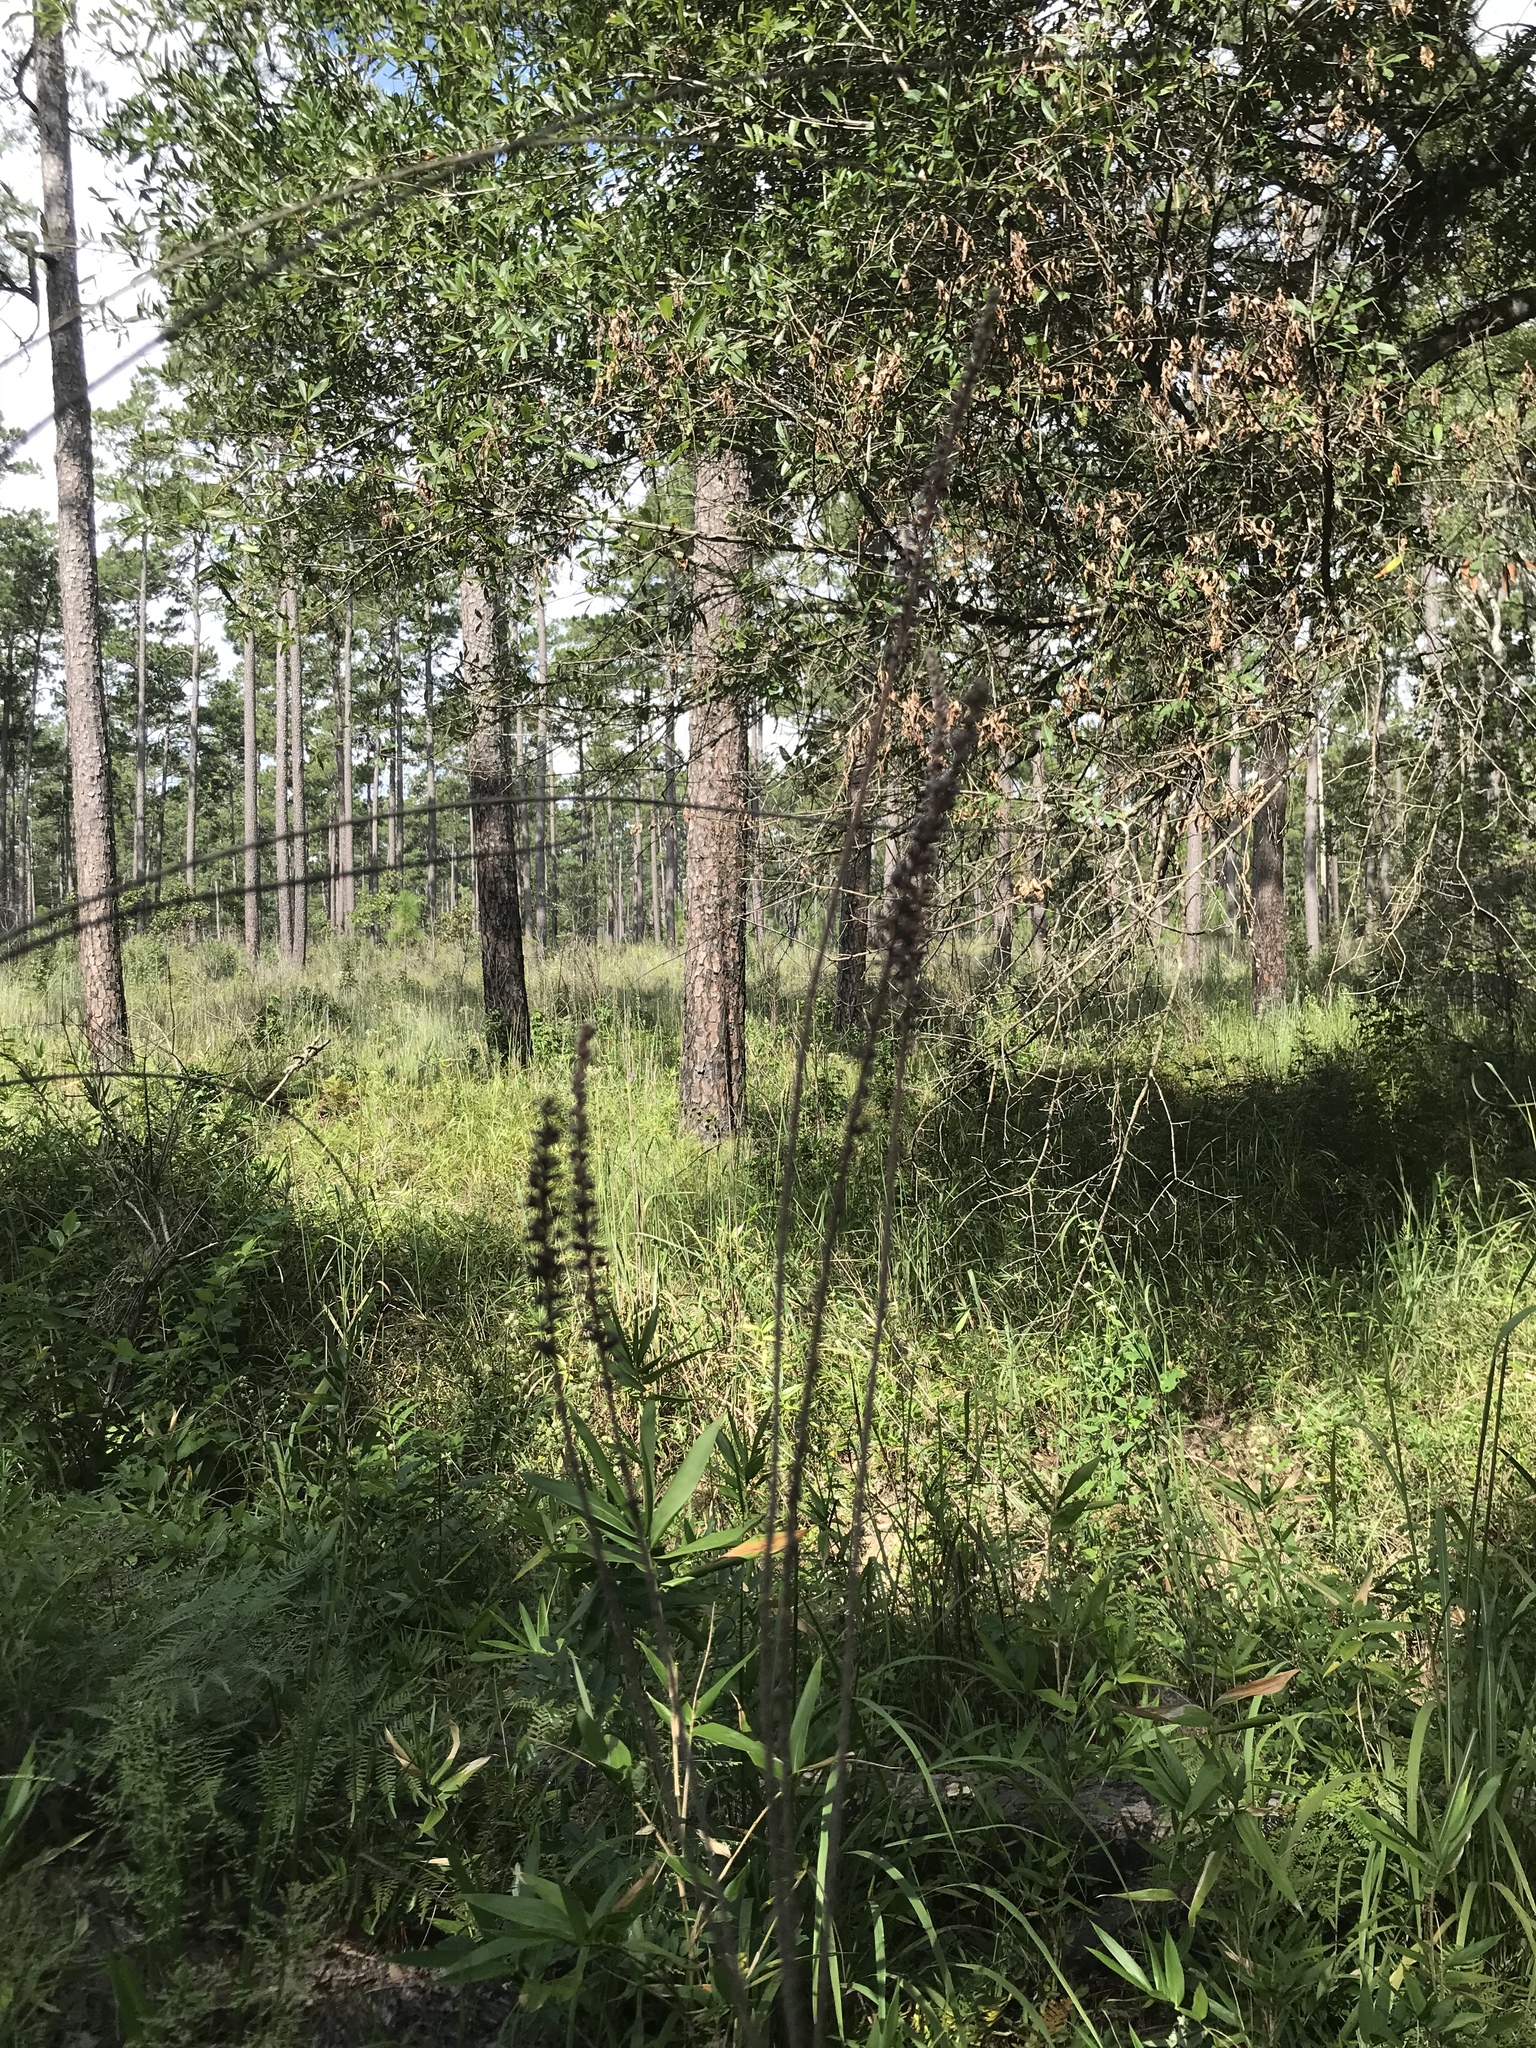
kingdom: Plantae
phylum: Tracheophyta
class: Magnoliopsida
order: Fabales
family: Fabaceae
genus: Amorpha
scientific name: Amorpha paniculata
